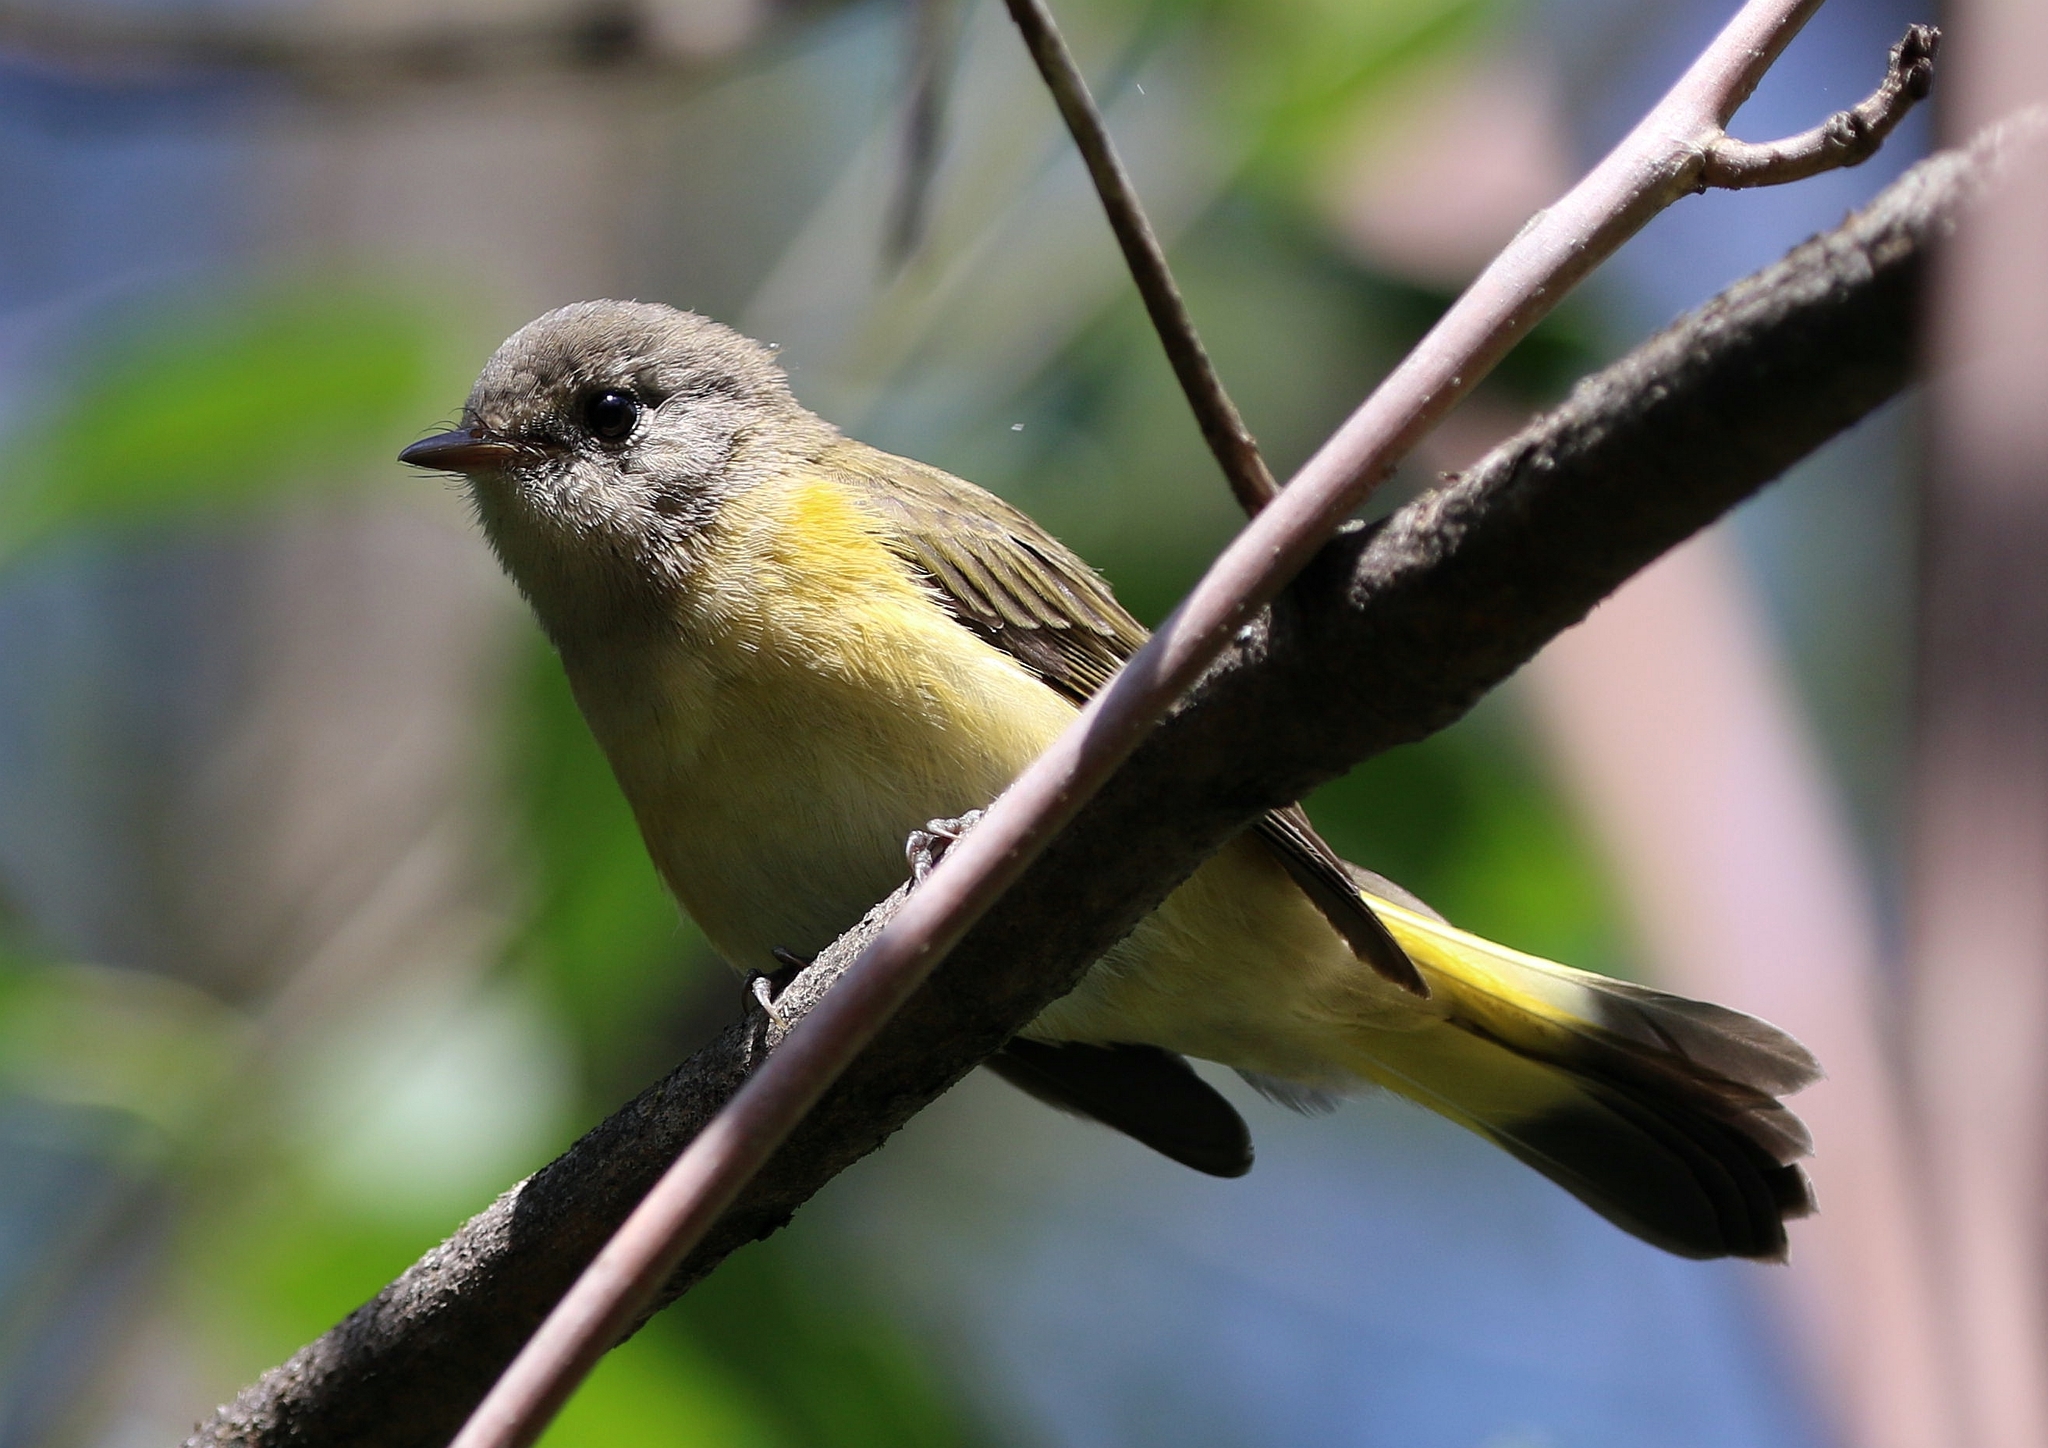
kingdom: Animalia
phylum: Chordata
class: Aves
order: Passeriformes
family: Parulidae
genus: Setophaga
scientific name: Setophaga ruticilla
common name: American redstart
